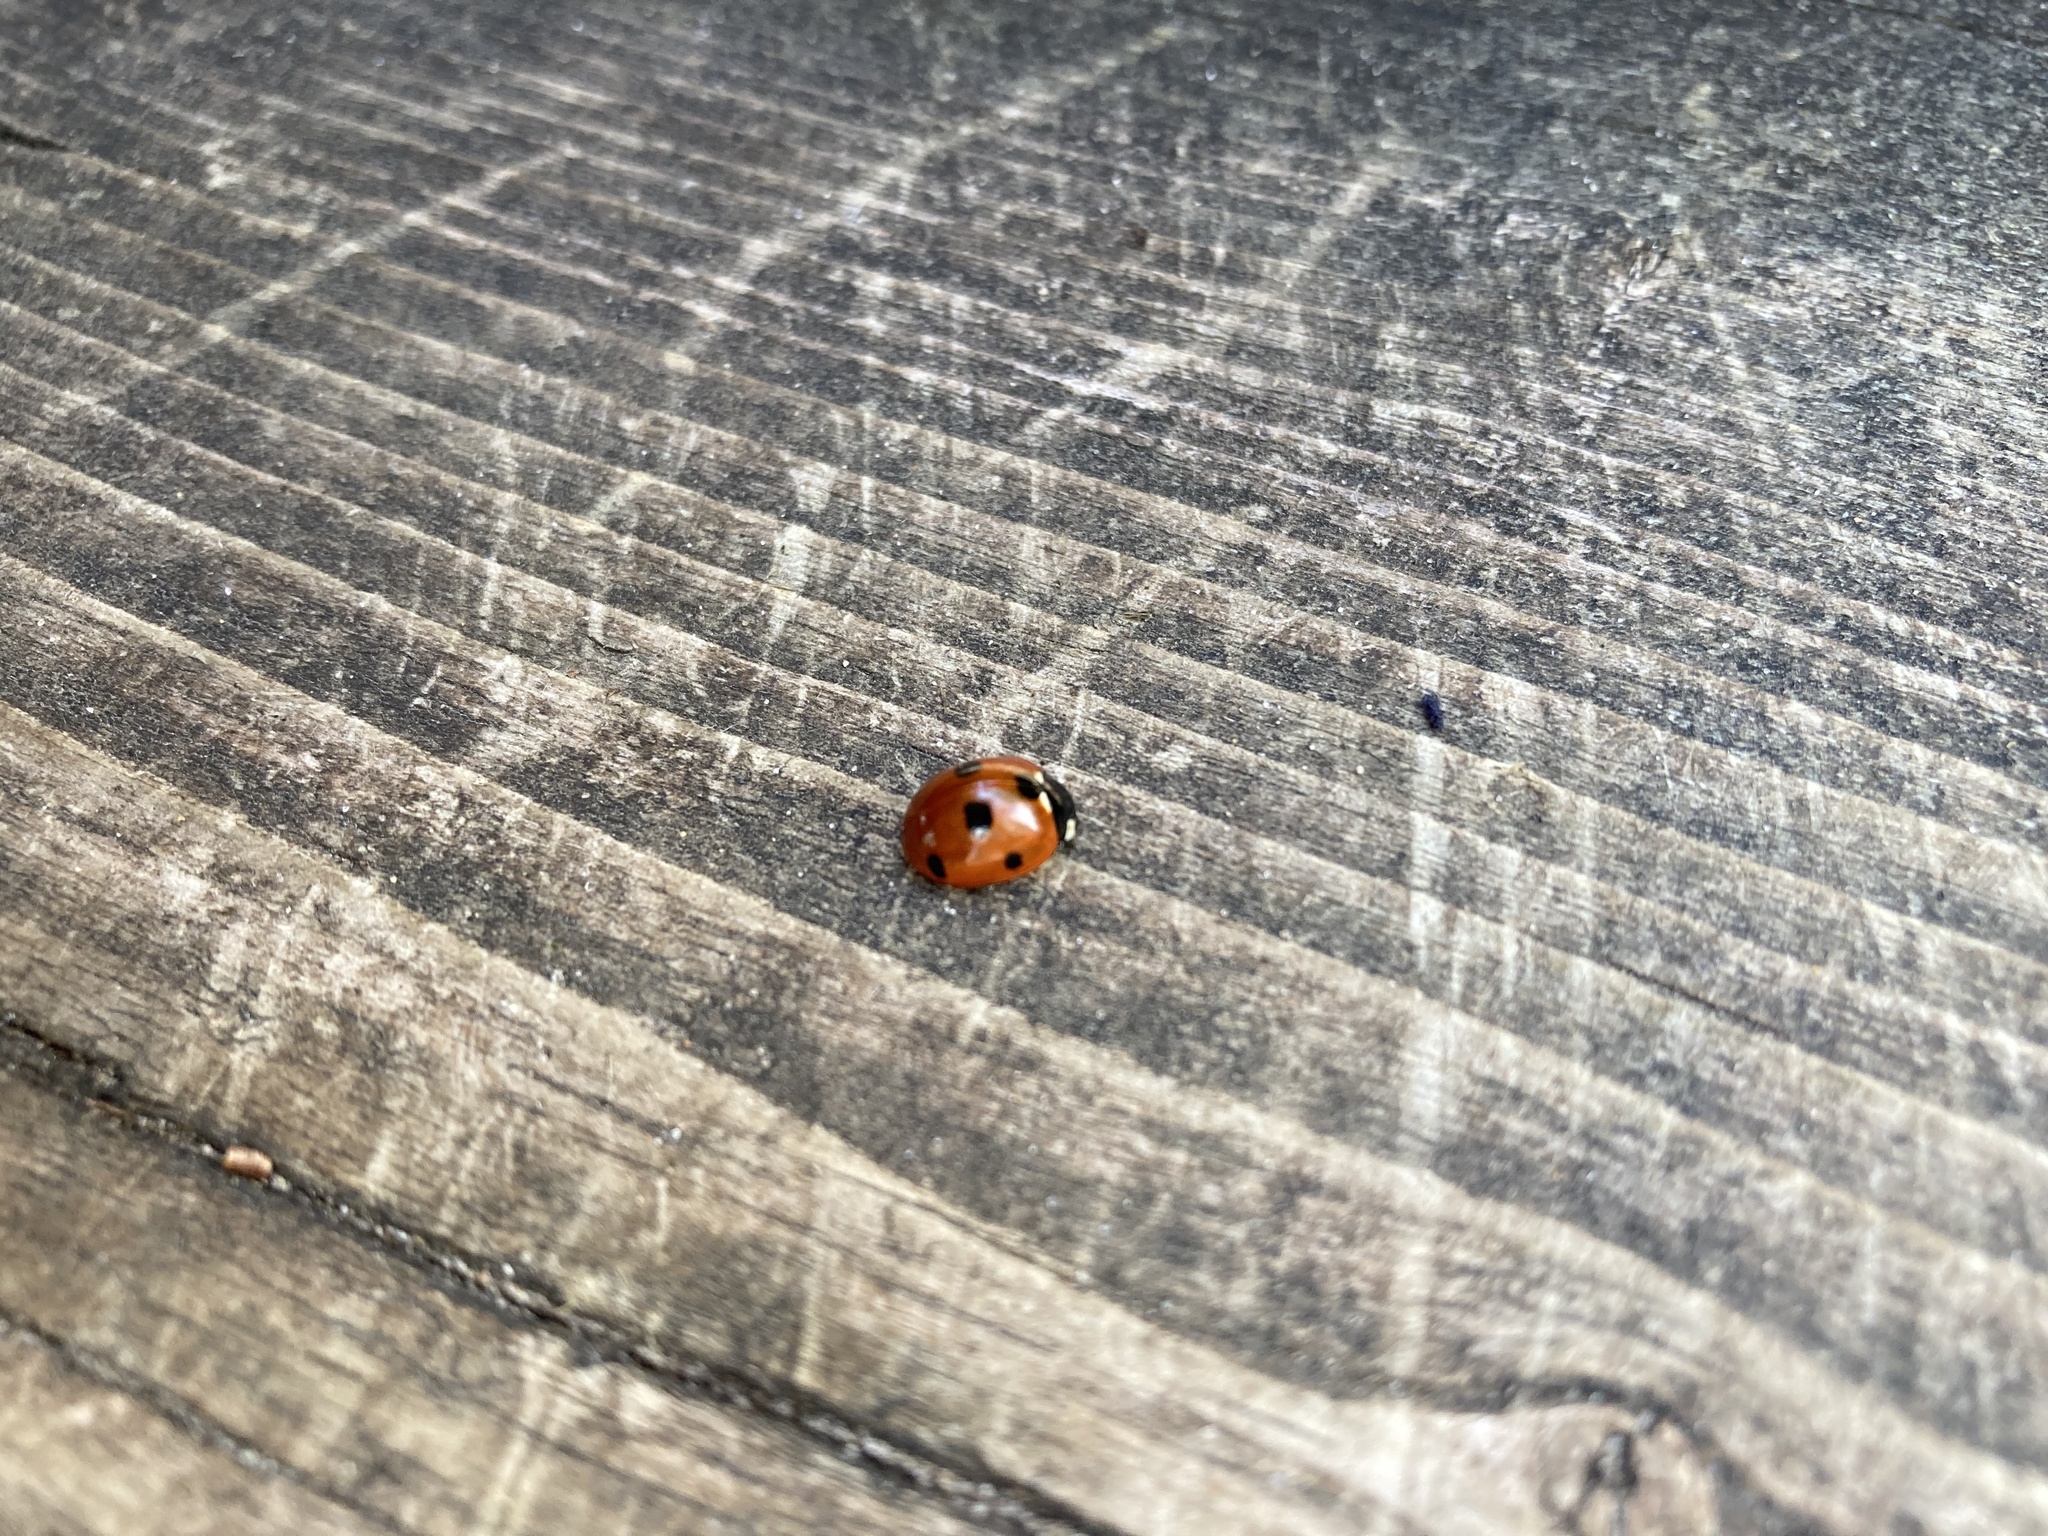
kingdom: Animalia
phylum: Arthropoda
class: Insecta
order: Coleoptera
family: Coccinellidae
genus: Coccinella
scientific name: Coccinella septempunctata
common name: Sevenspotted lady beetle
